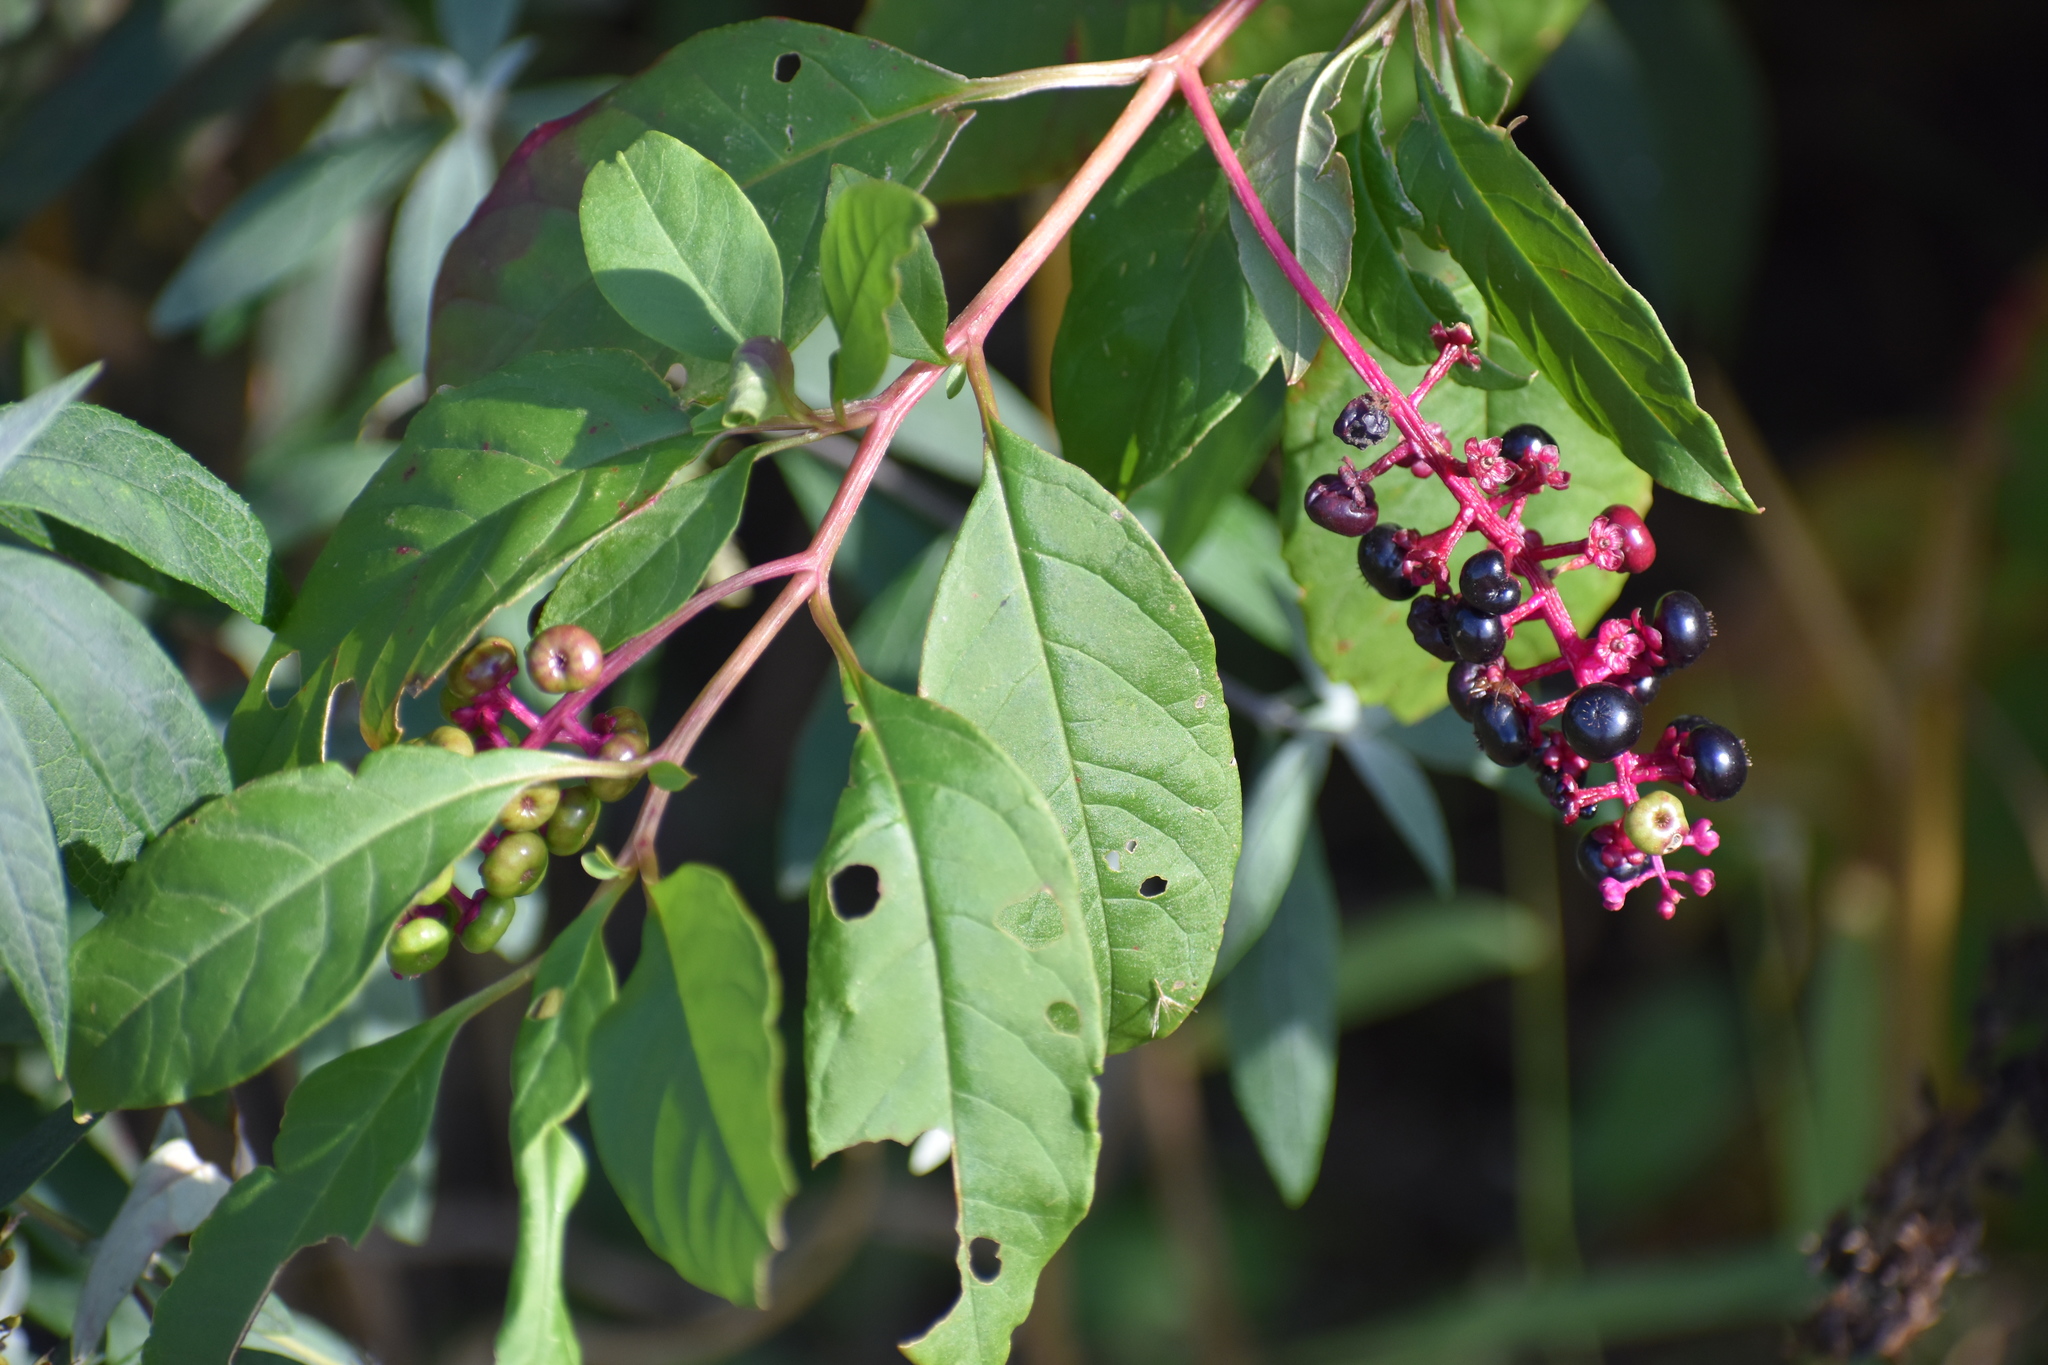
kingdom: Plantae
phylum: Tracheophyta
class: Magnoliopsida
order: Caryophyllales
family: Phytolaccaceae
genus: Phytolacca
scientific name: Phytolacca americana
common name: American pokeweed
